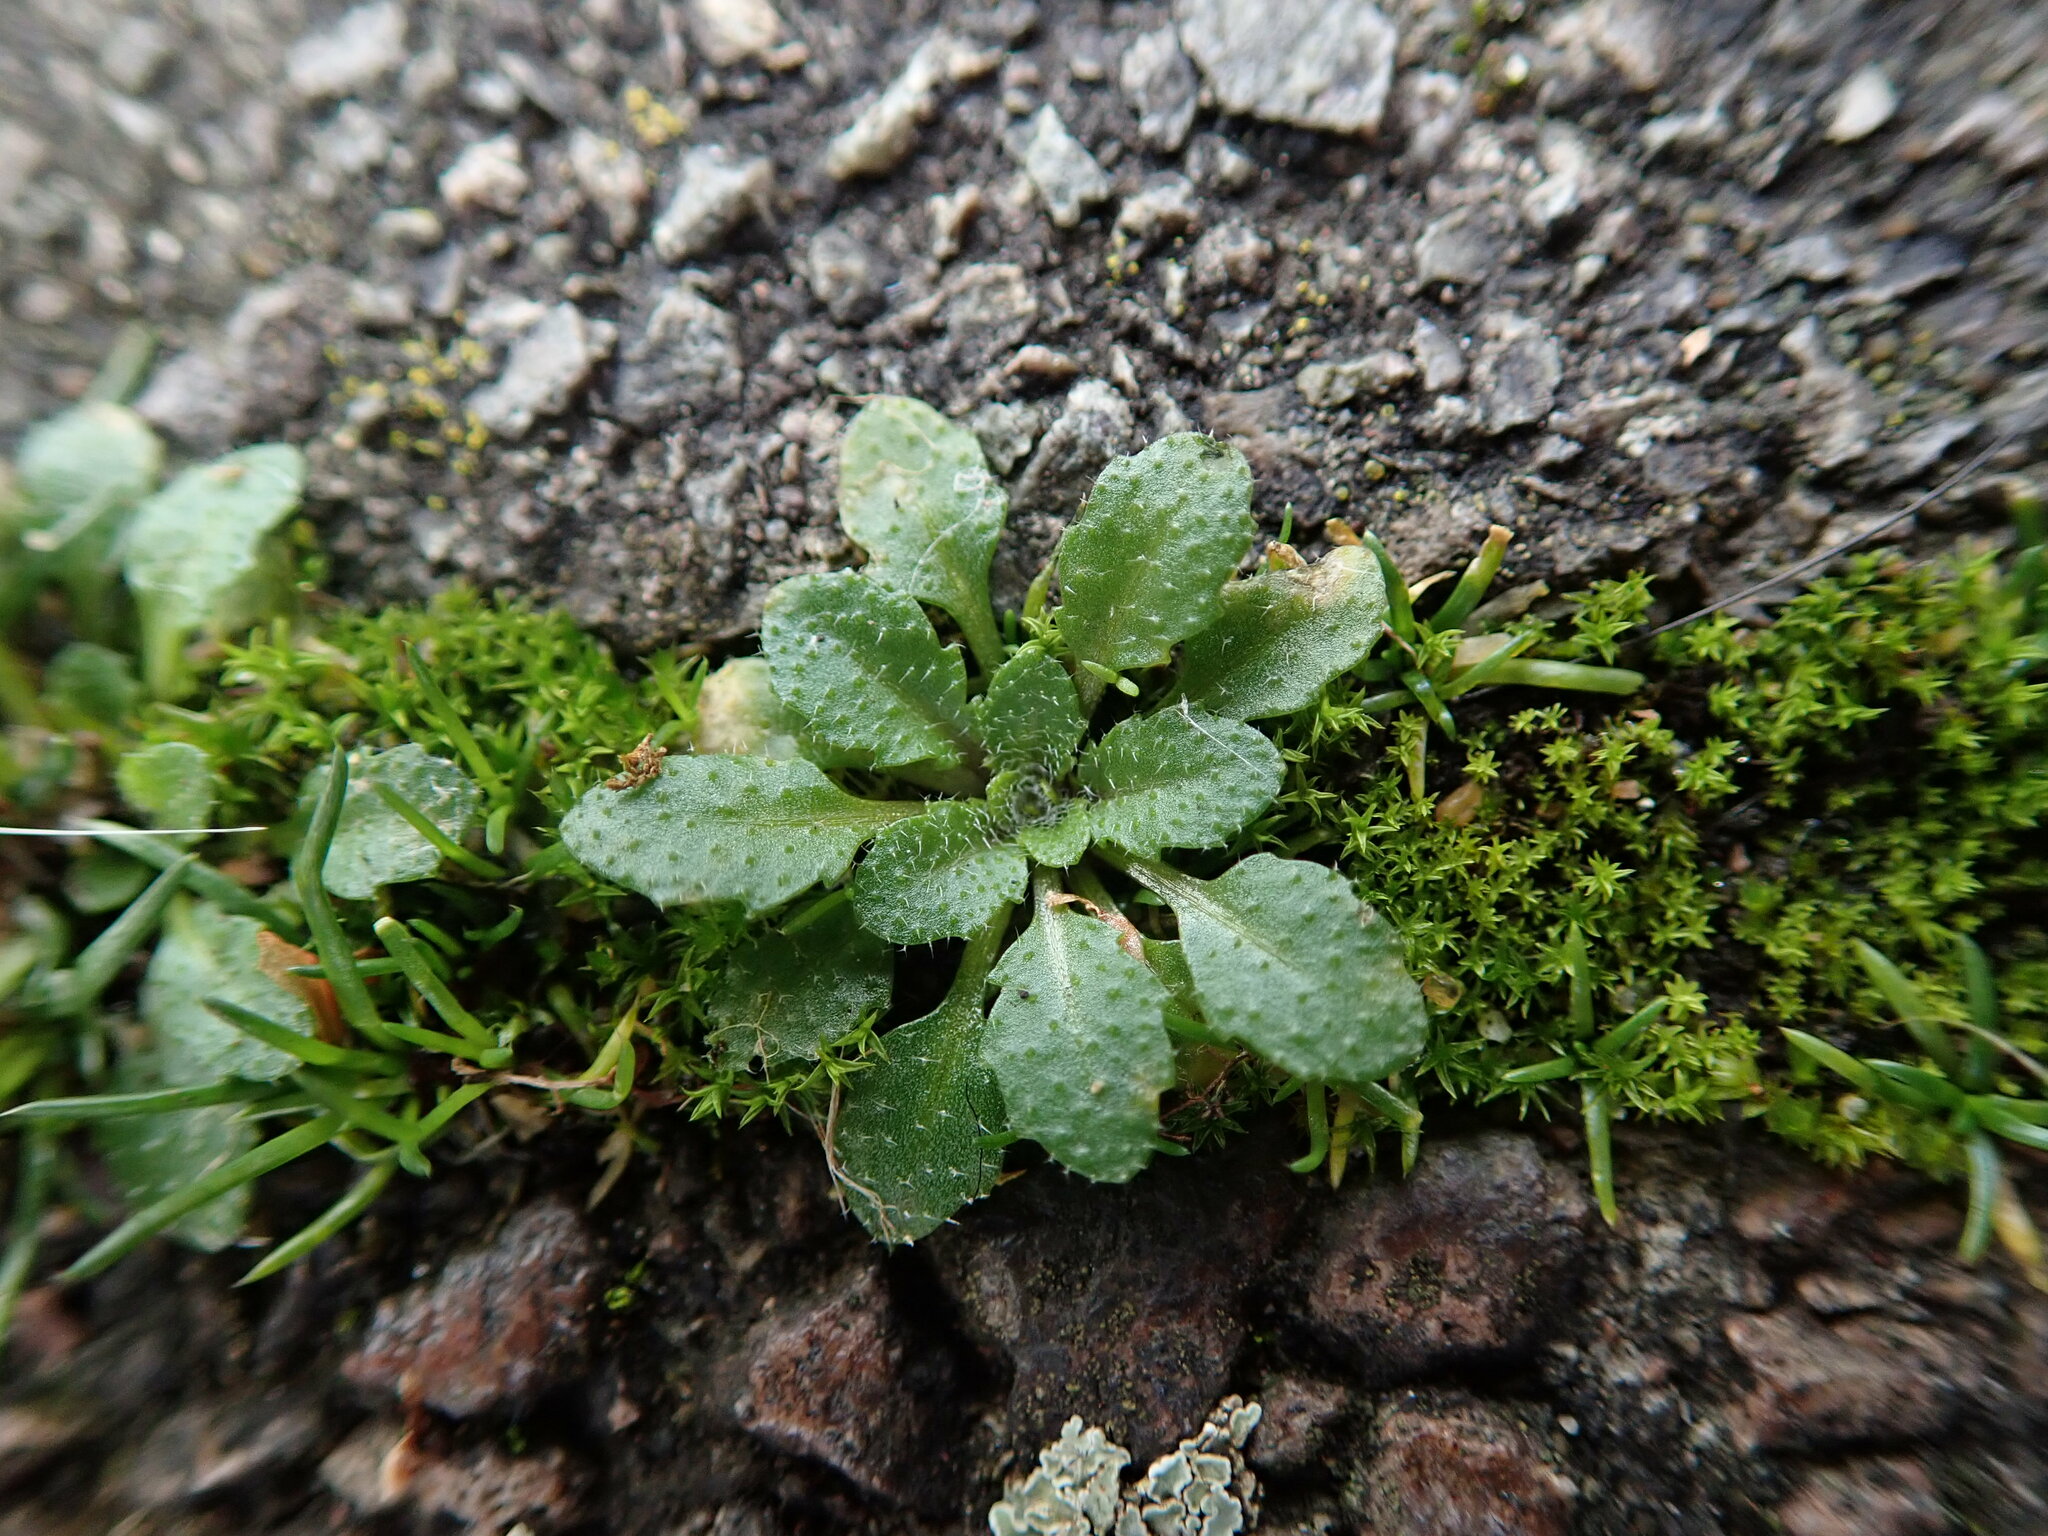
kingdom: Plantae
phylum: Tracheophyta
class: Magnoliopsida
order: Brassicales
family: Brassicaceae
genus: Arabidopsis
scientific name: Arabidopsis thaliana
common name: Thale cress
